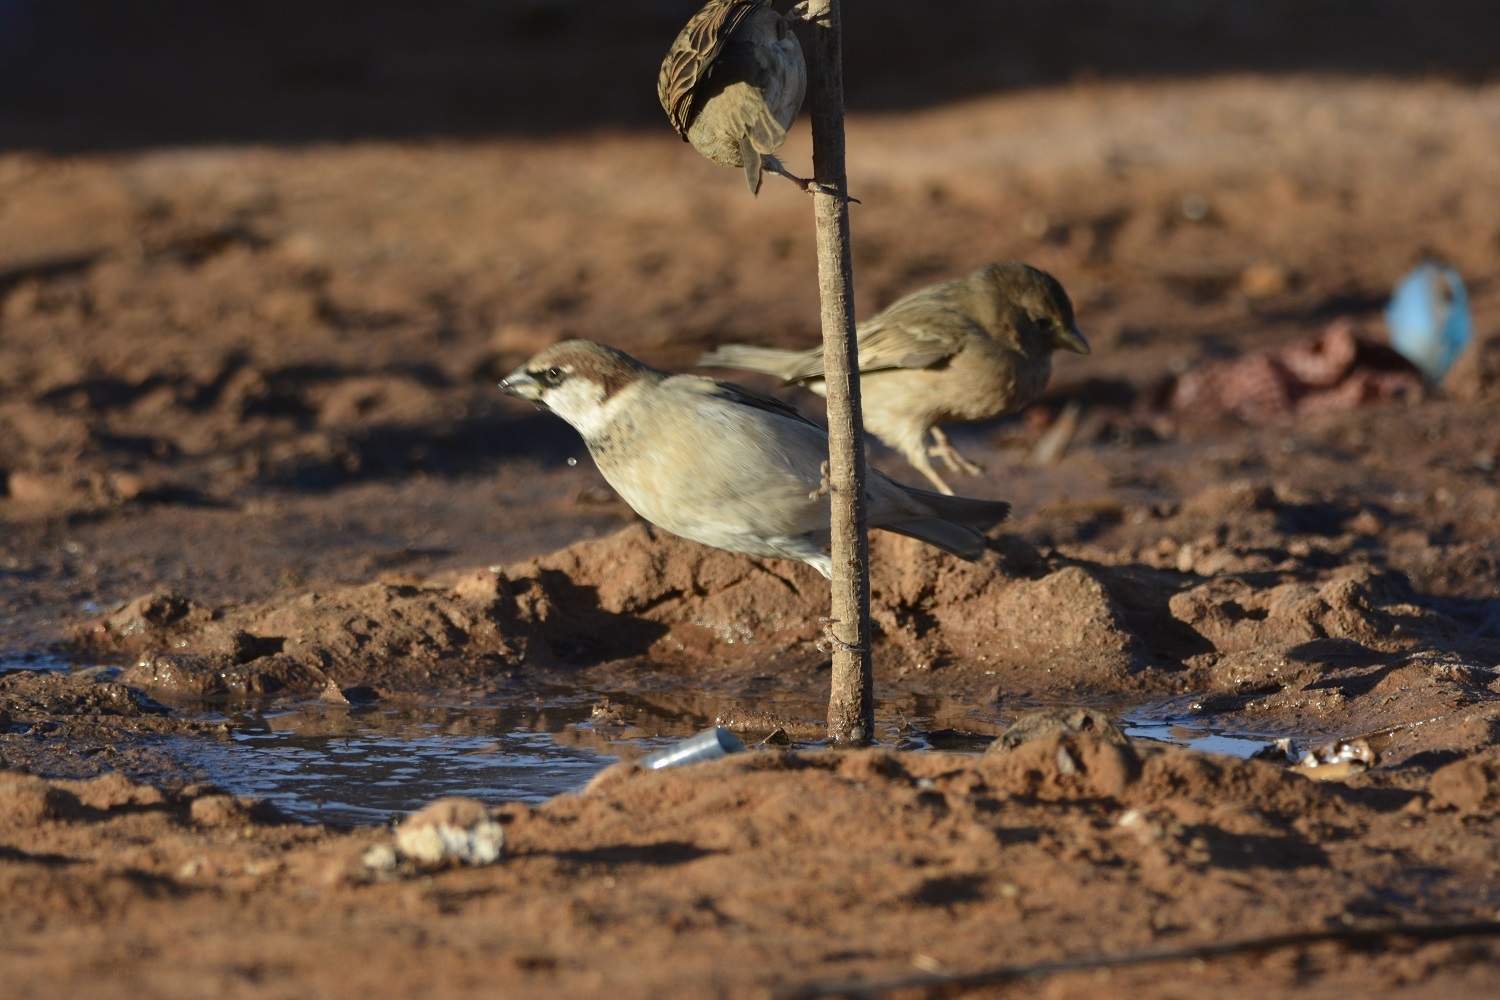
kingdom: Animalia
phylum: Chordata
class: Aves
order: Passeriformes
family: Passeridae
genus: Passer
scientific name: Passer domesticus
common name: House sparrow
